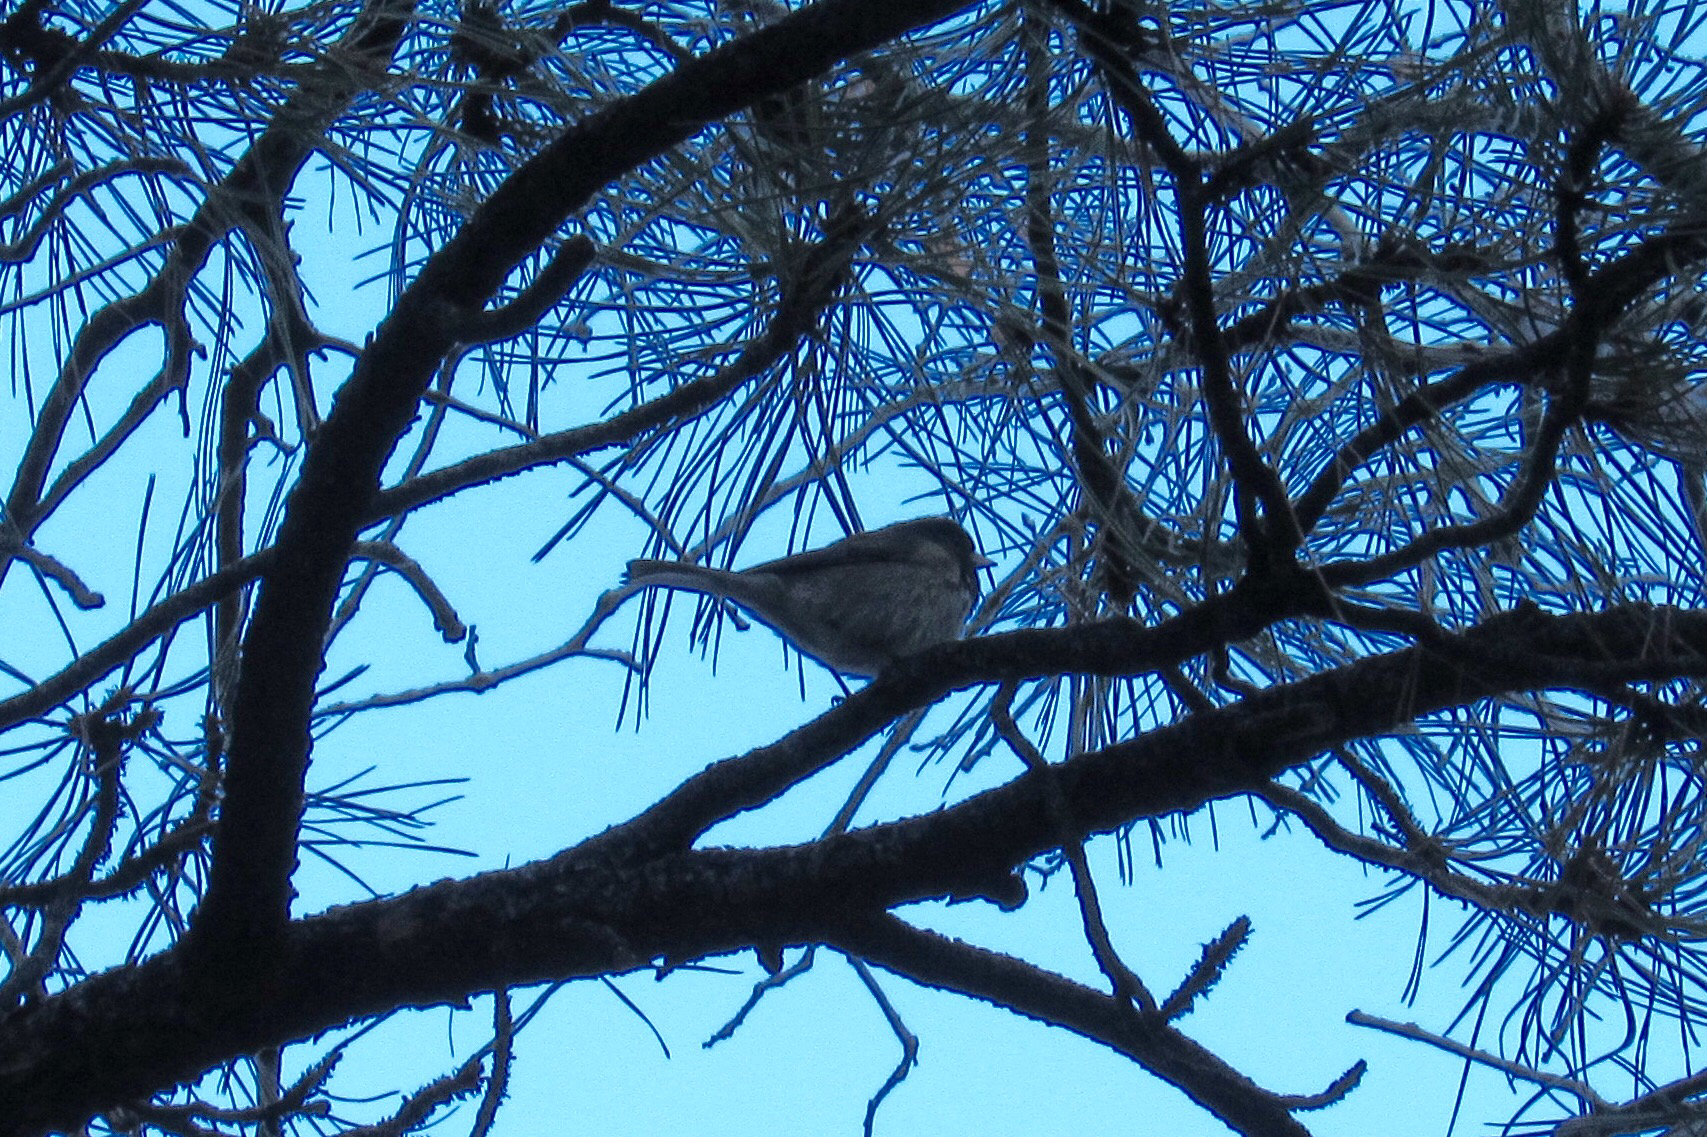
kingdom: Animalia
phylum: Chordata
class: Aves
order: Passeriformes
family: Passerellidae
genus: Junco
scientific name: Junco hyemalis
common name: Dark-eyed junco
